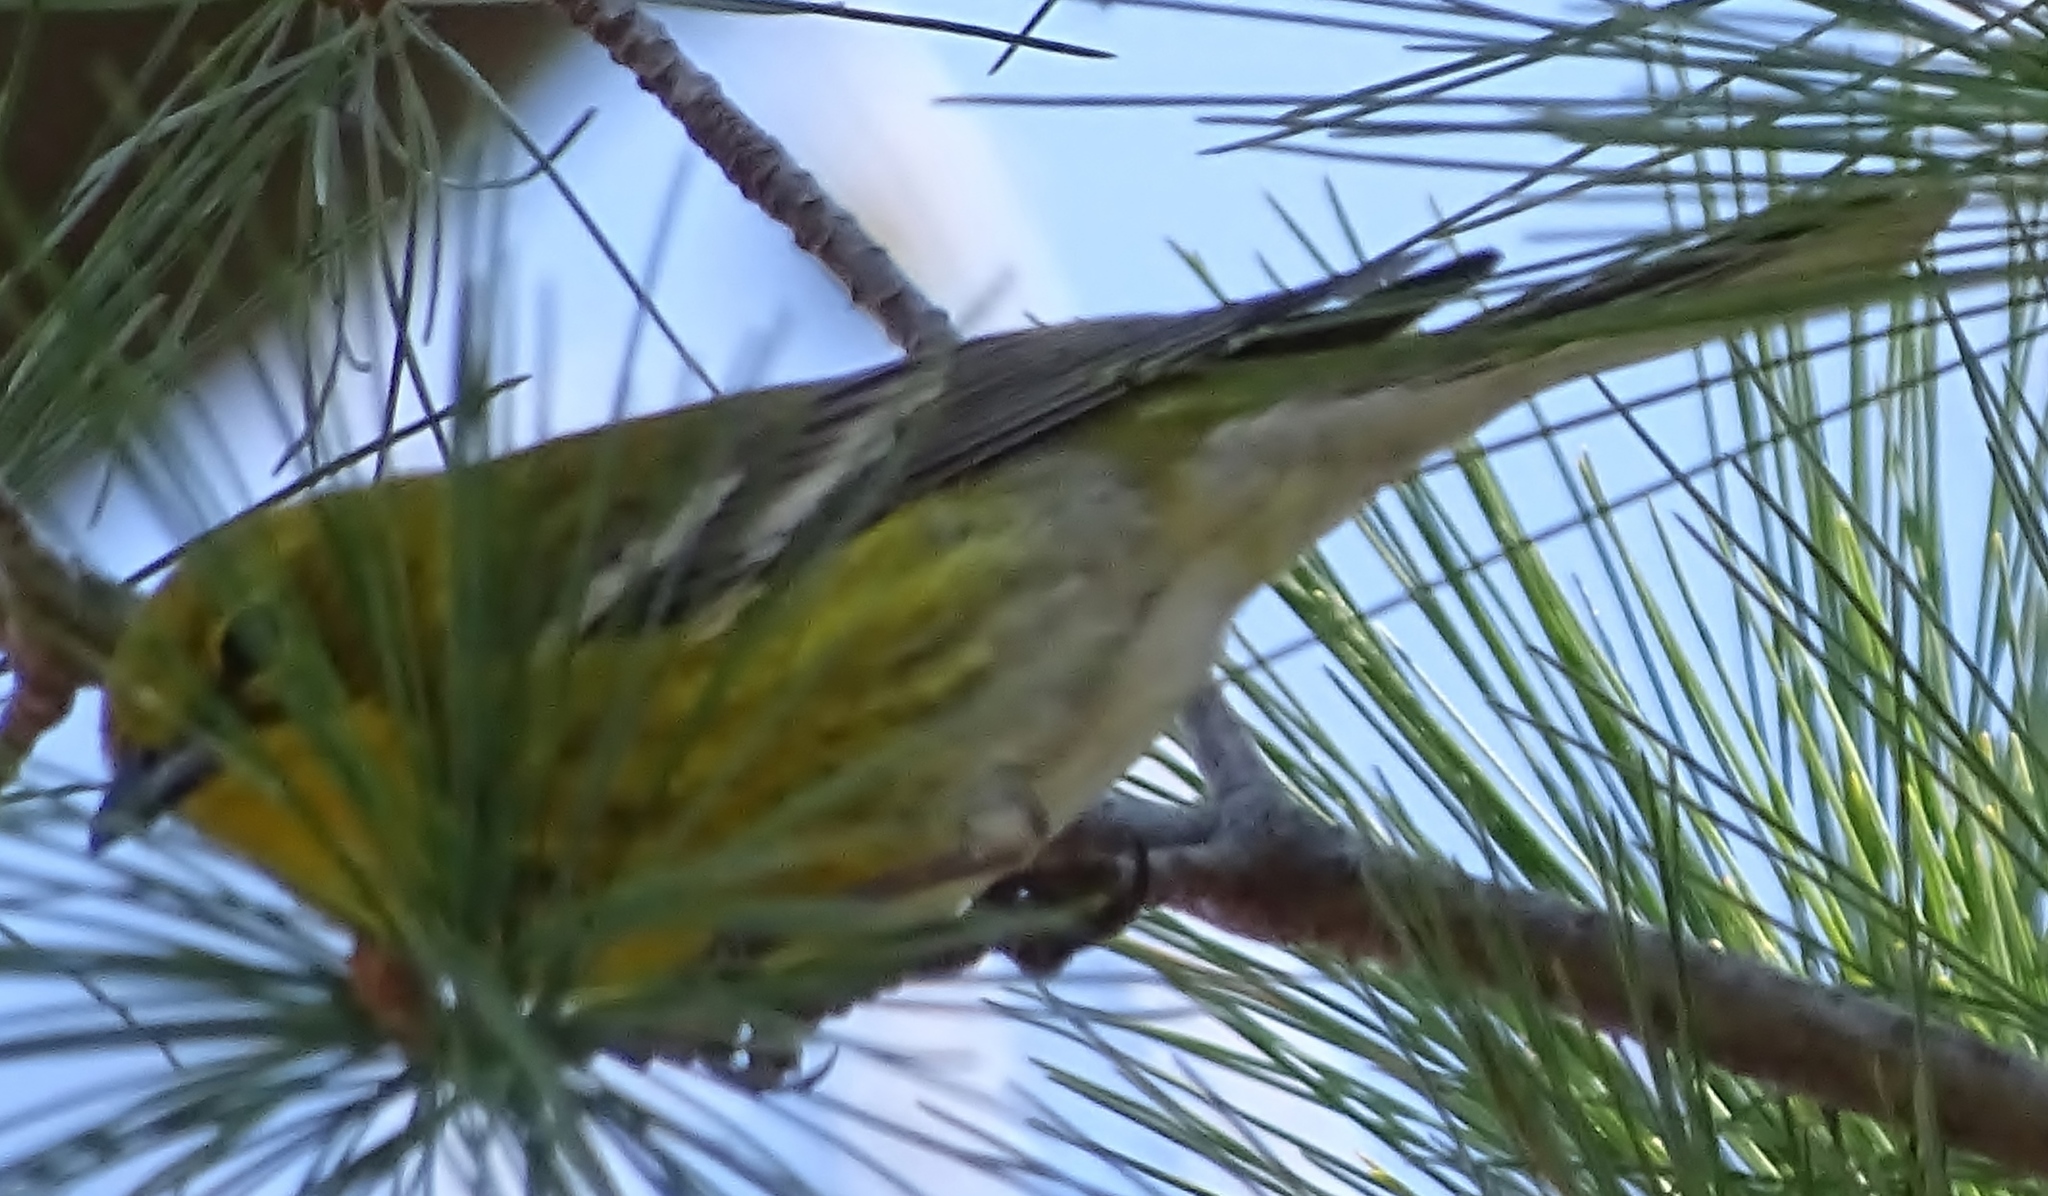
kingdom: Animalia
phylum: Chordata
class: Aves
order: Passeriformes
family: Parulidae
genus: Setophaga
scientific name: Setophaga pinus
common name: Pine warbler
